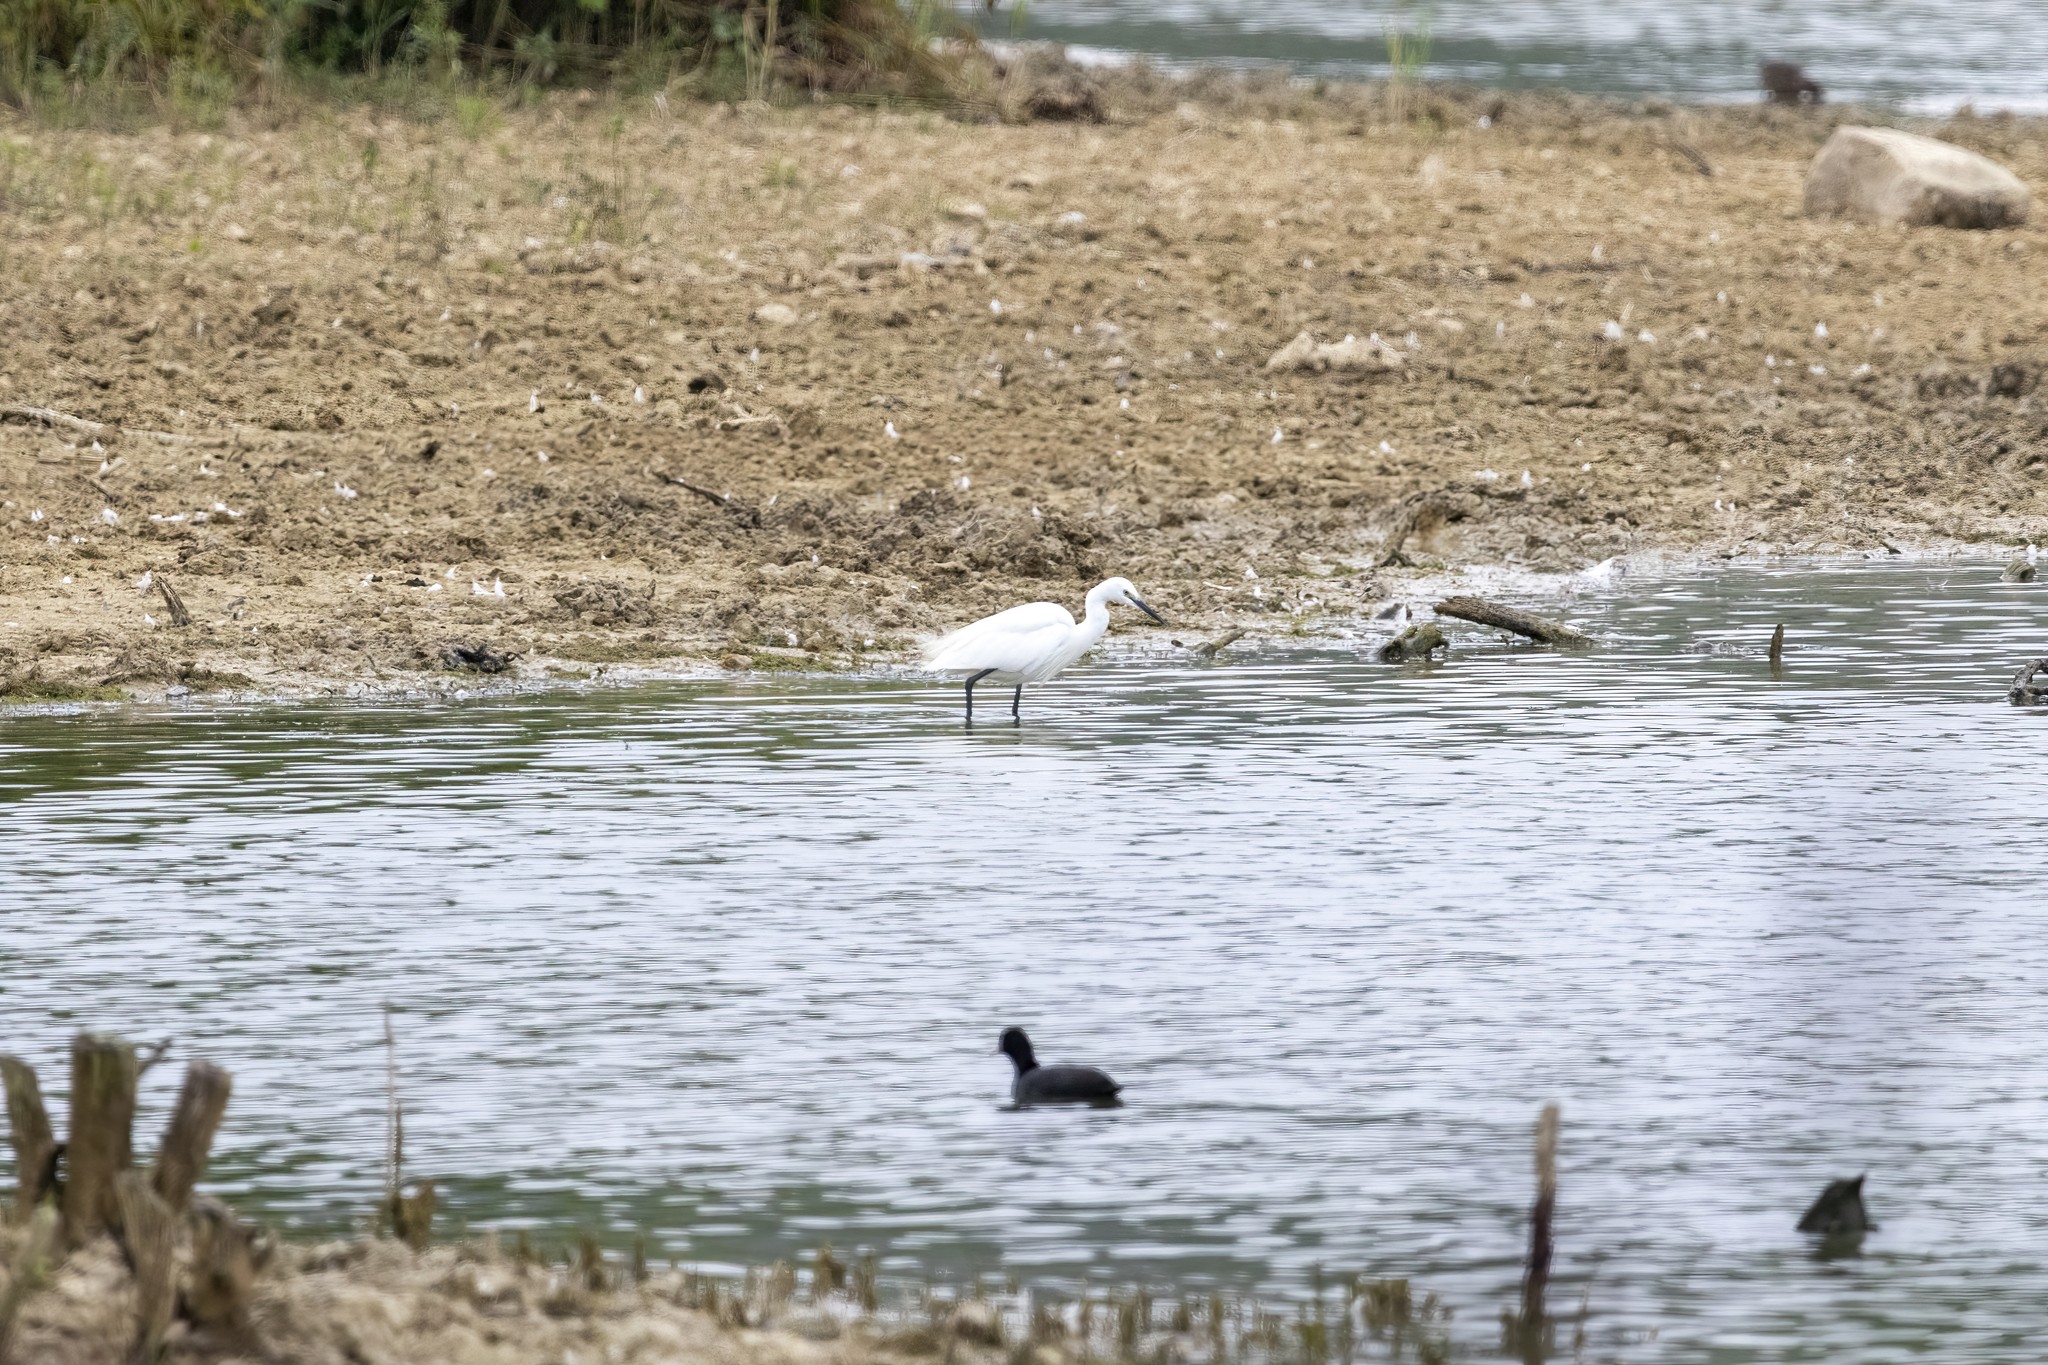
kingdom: Animalia
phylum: Chordata
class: Aves
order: Pelecaniformes
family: Ardeidae
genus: Egretta
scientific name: Egretta garzetta
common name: Little egret
